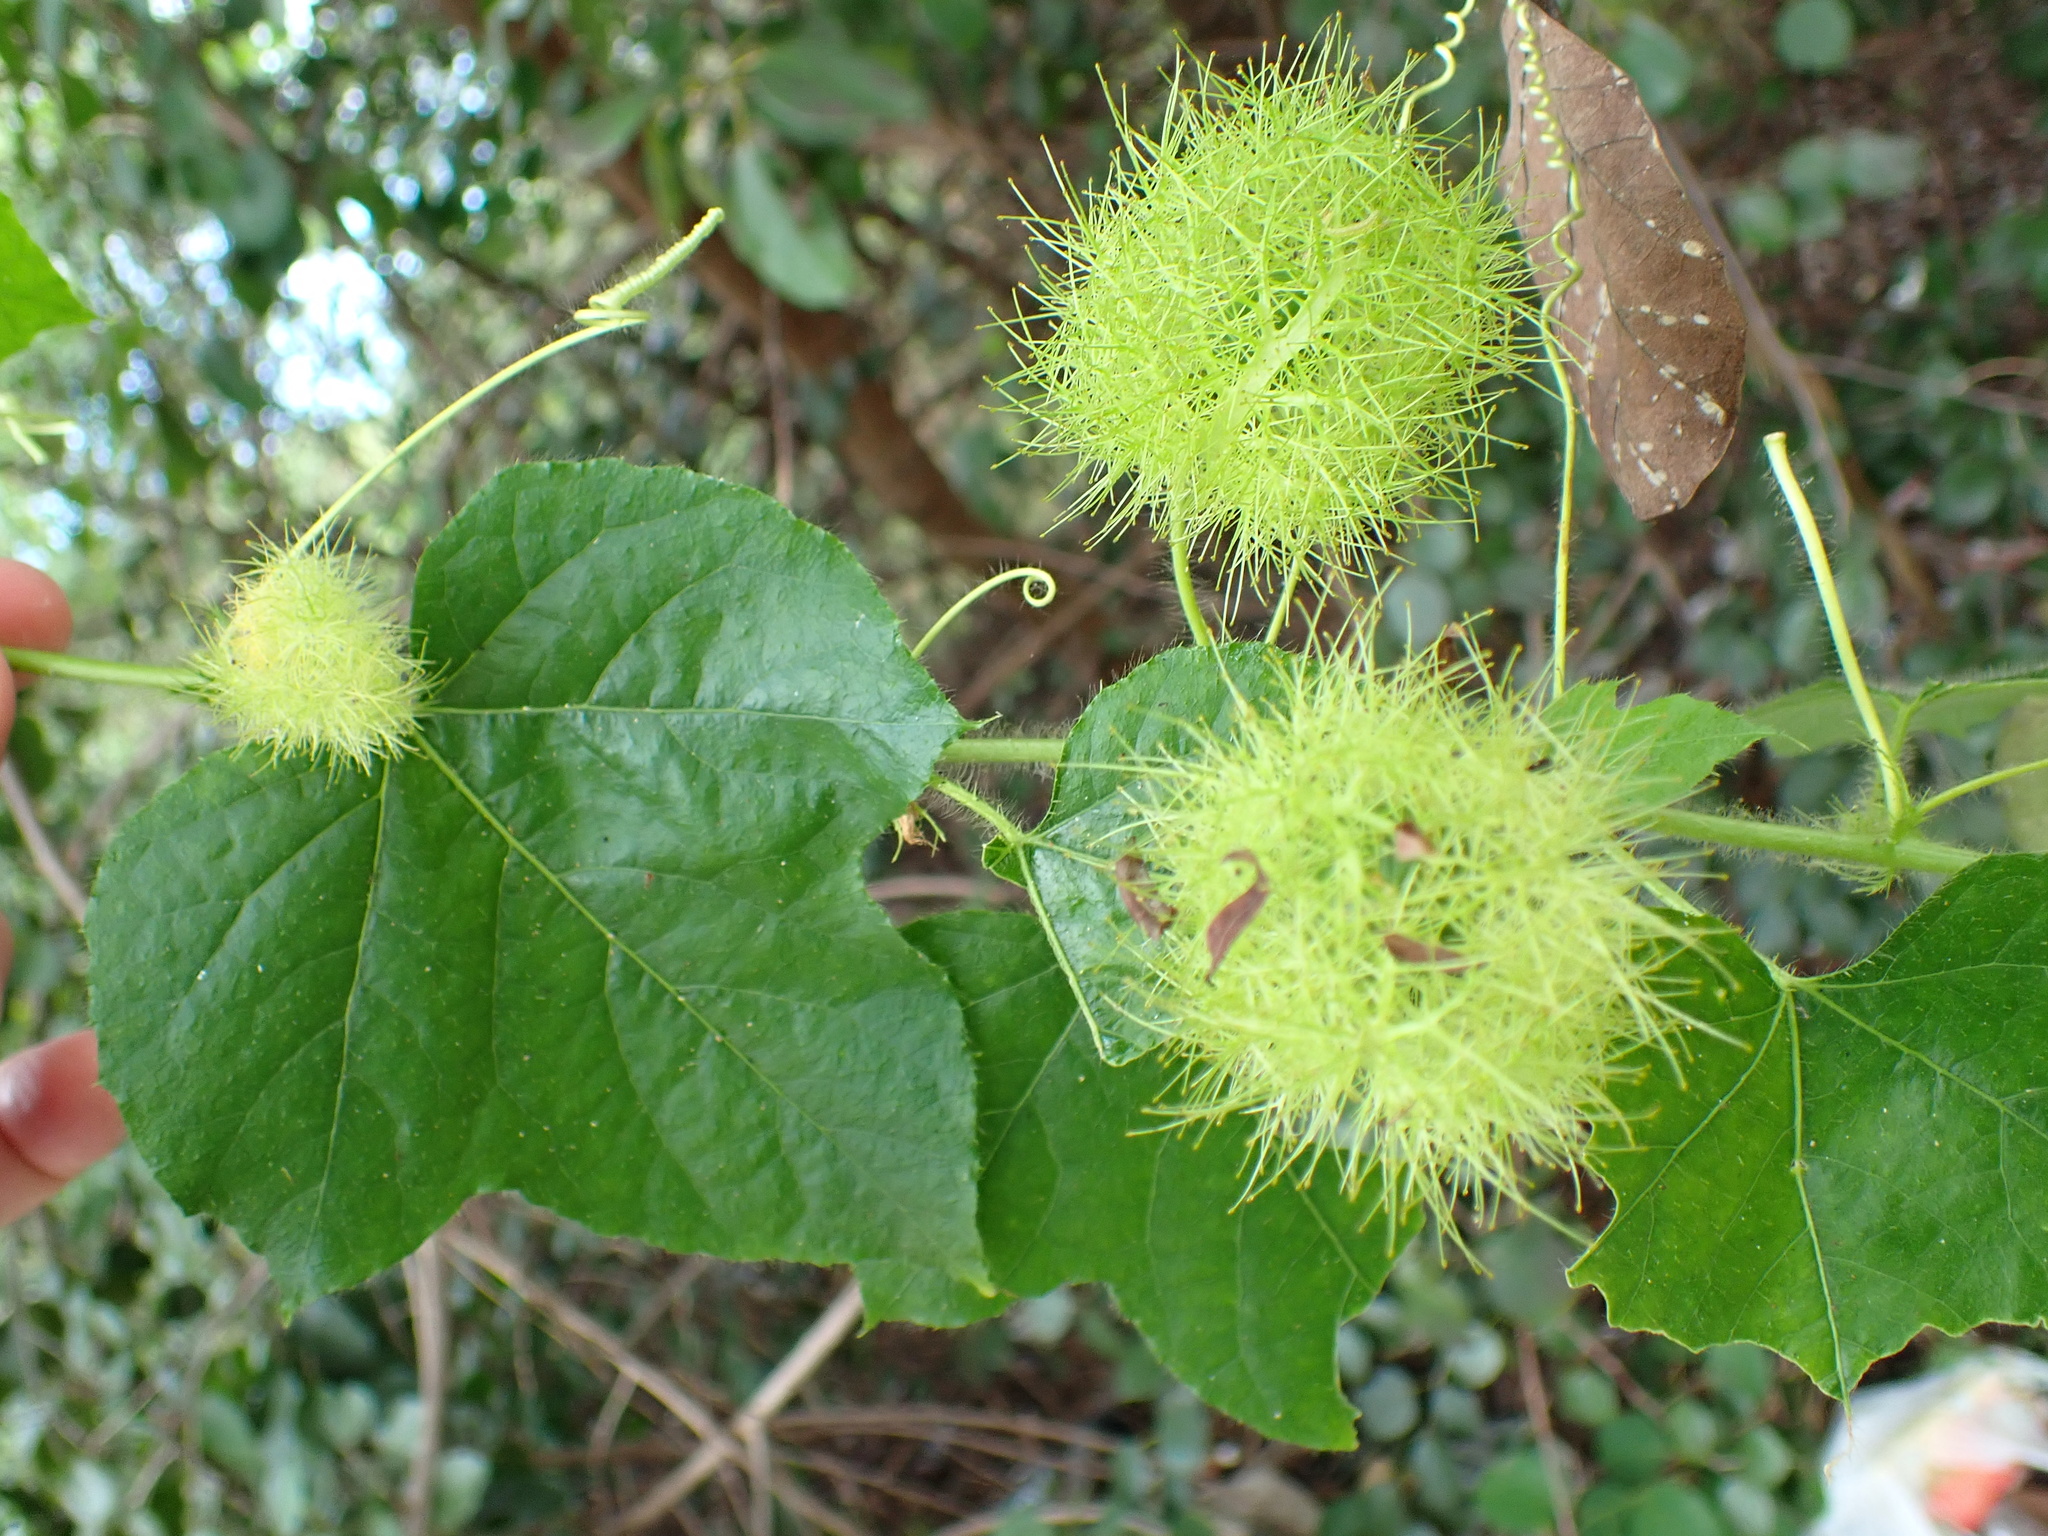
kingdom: Plantae
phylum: Tracheophyta
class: Magnoliopsida
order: Malpighiales
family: Passifloraceae
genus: Passiflora
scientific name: Passiflora foetida
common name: Fetid passionflower
